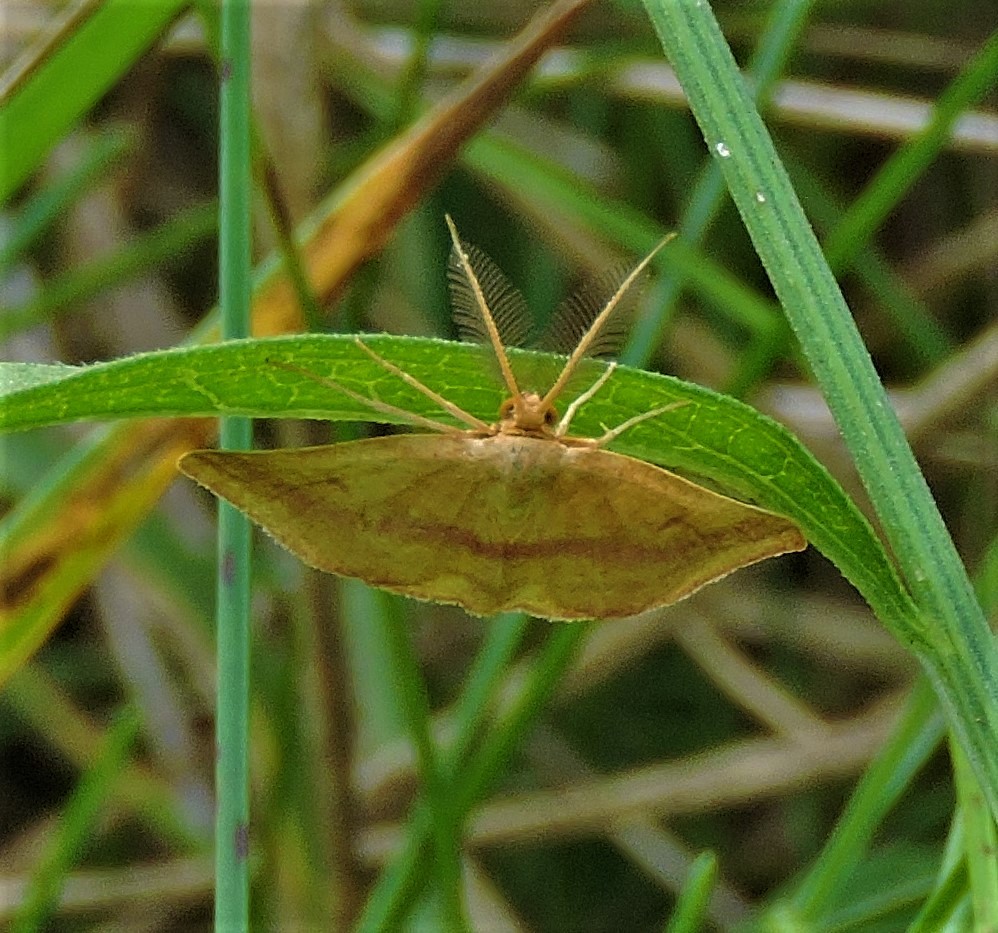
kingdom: Animalia
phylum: Arthropoda
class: Insecta
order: Lepidoptera
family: Geometridae
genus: Haematopis
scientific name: Haematopis grataria
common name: Chickweed geometer
